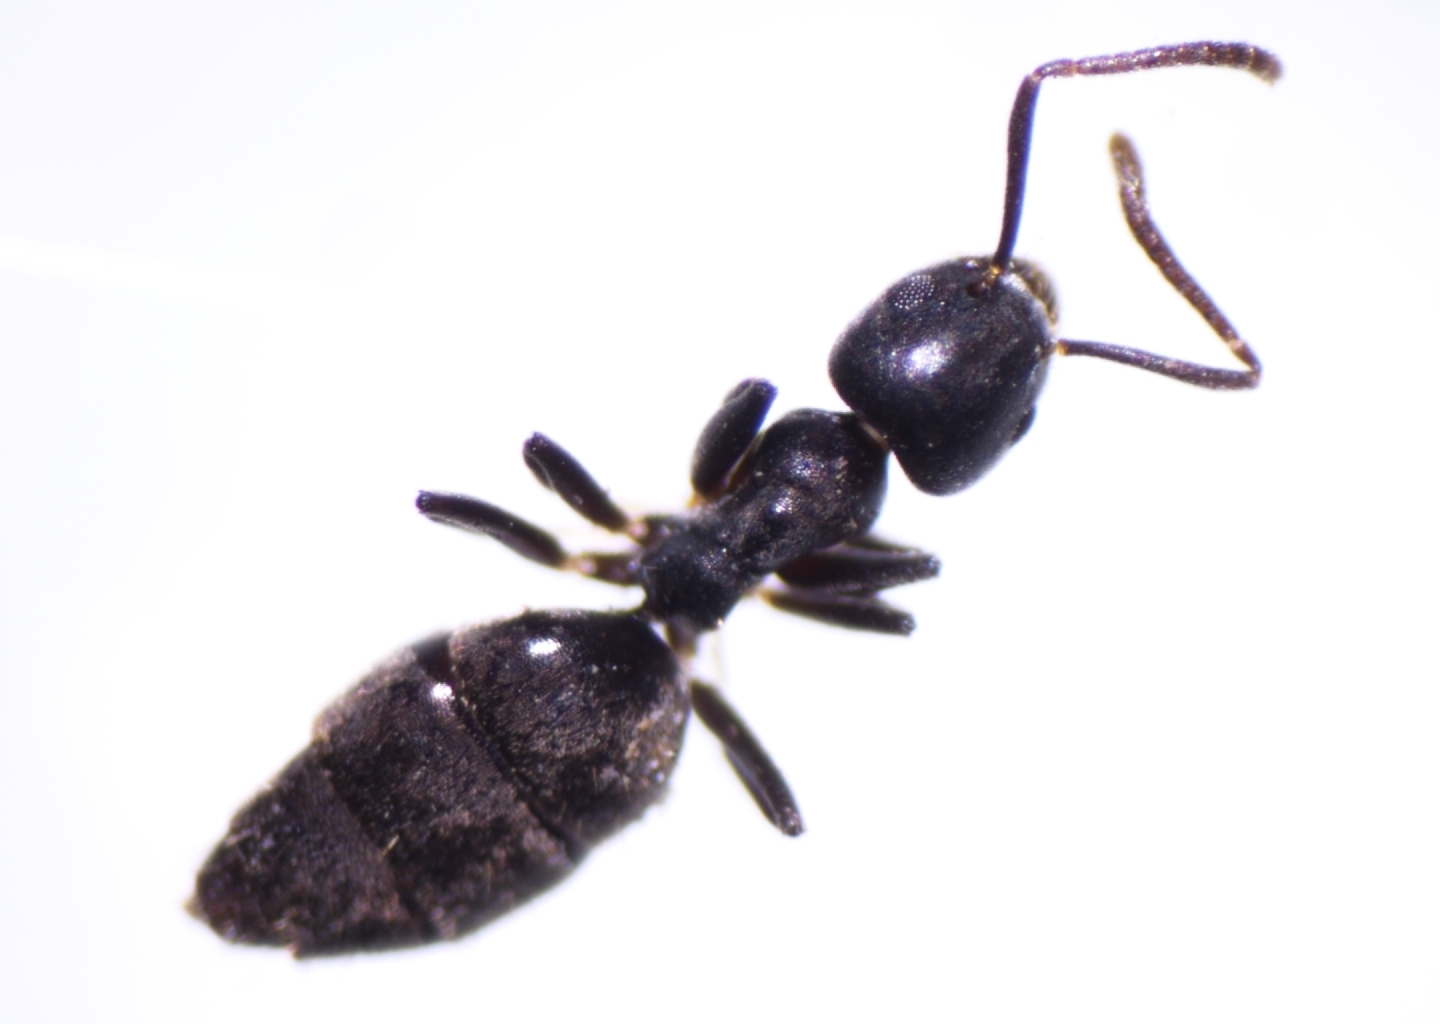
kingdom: Animalia
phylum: Arthropoda
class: Insecta
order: Hymenoptera
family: Formicidae
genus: Technomyrmex
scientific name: Technomyrmex vitiensis
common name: Ant
